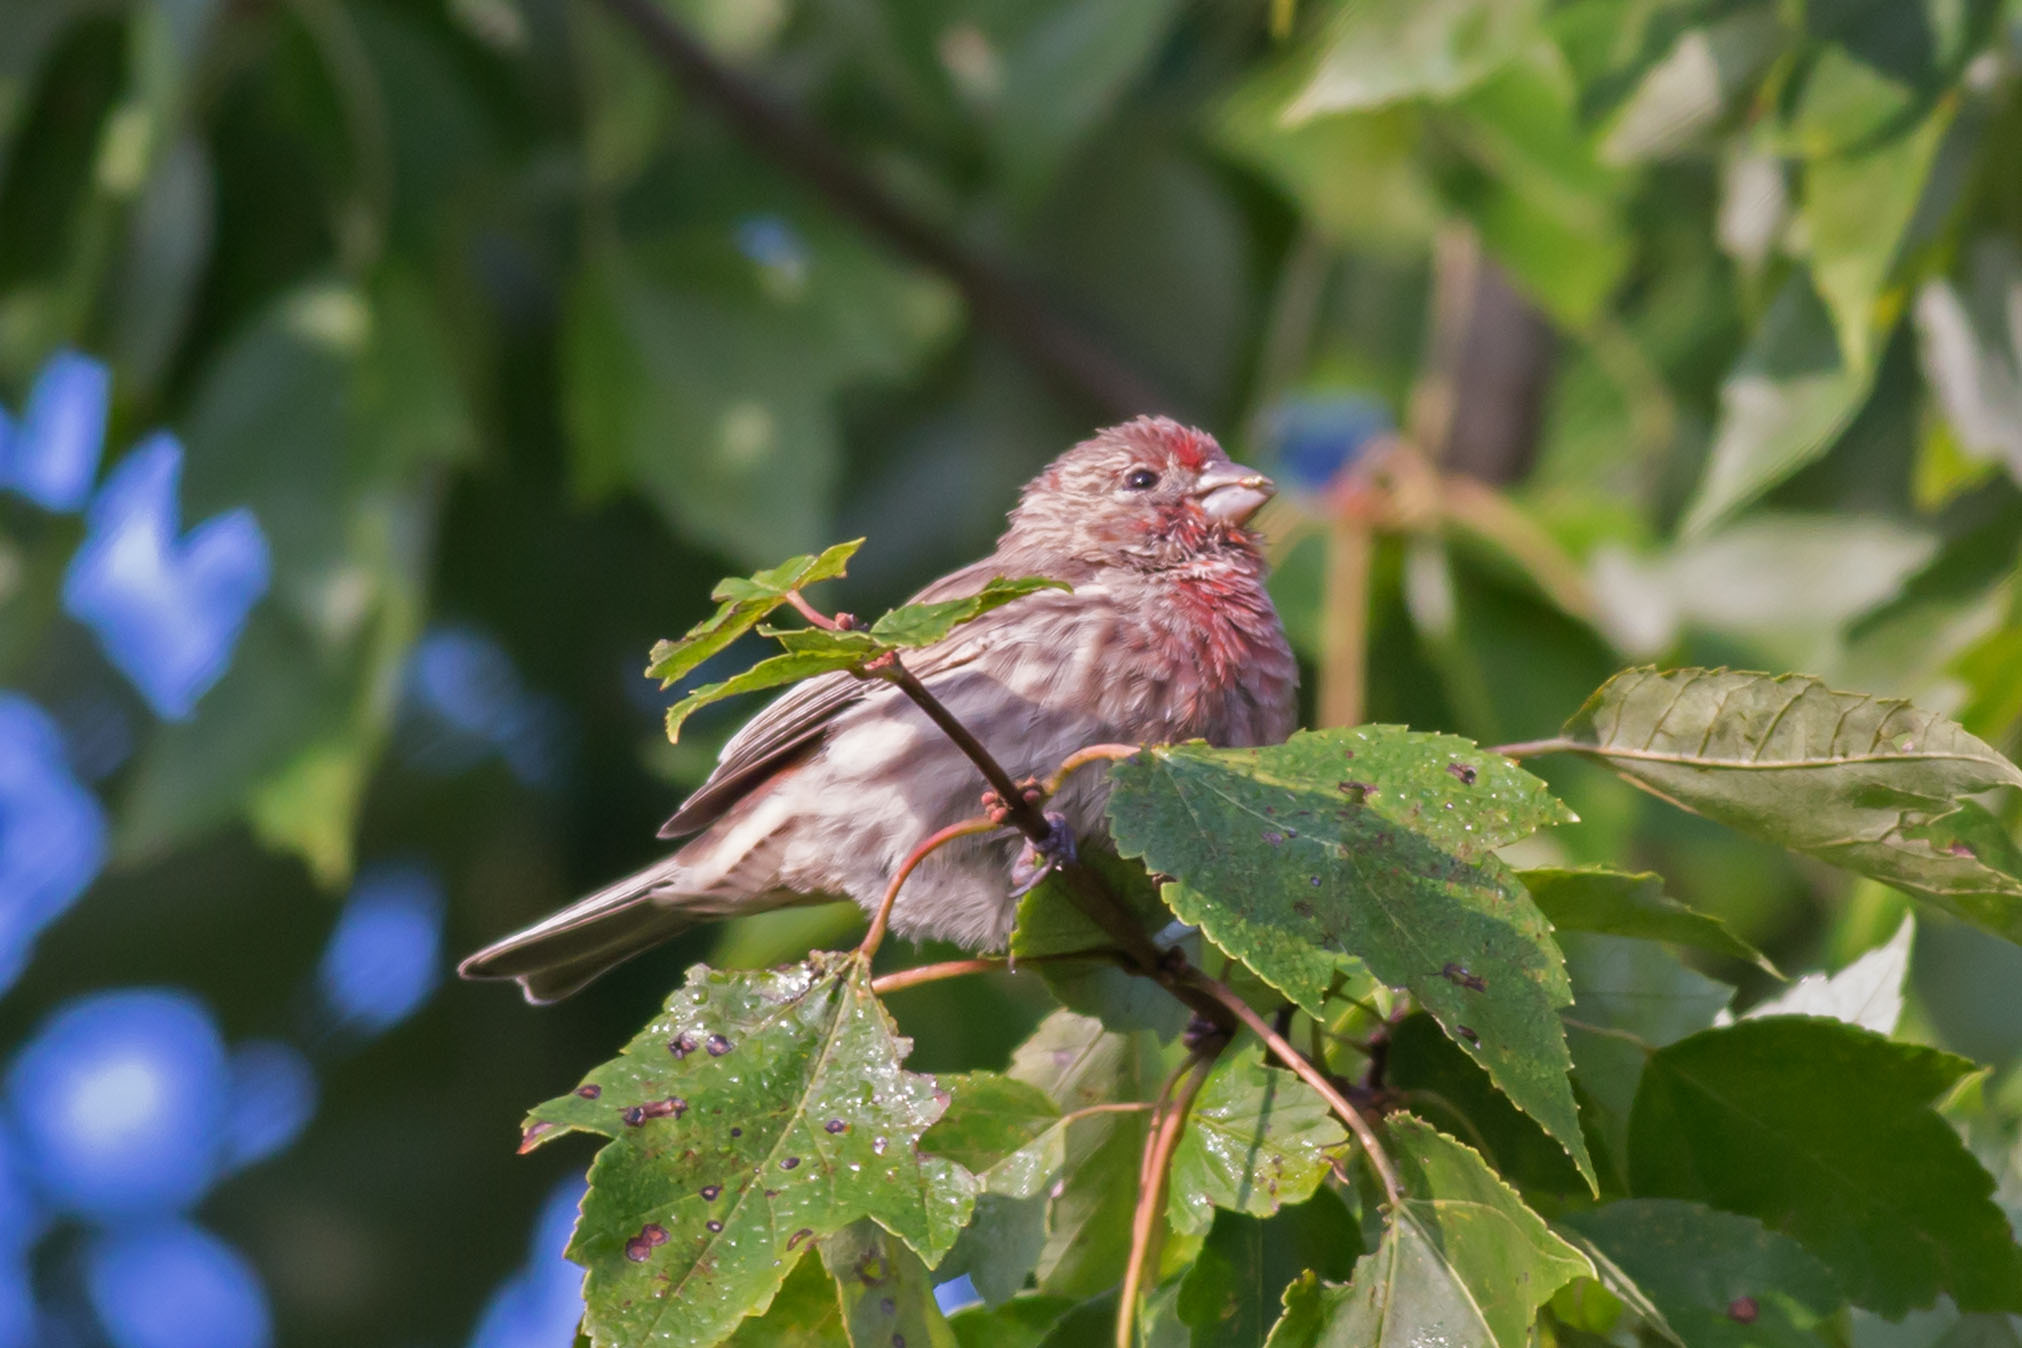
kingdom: Animalia
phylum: Chordata
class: Aves
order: Passeriformes
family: Fringillidae
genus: Haemorhous
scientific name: Haemorhous mexicanus
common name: House finch
